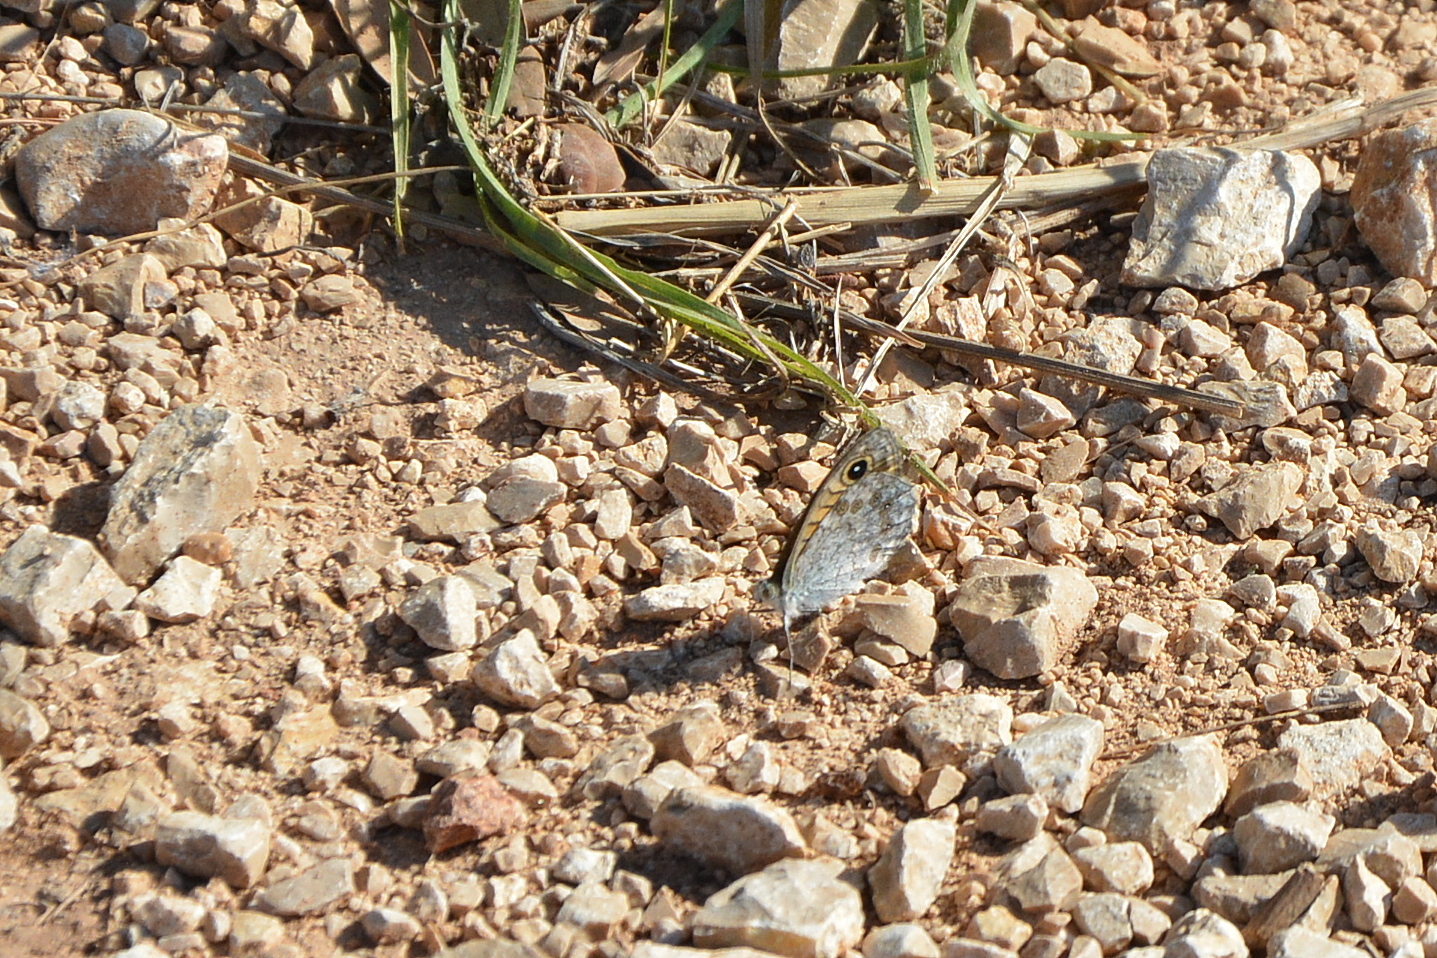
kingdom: Animalia
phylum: Arthropoda
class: Insecta
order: Lepidoptera
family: Nymphalidae
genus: Pararge
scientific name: Pararge Lasiommata megera
